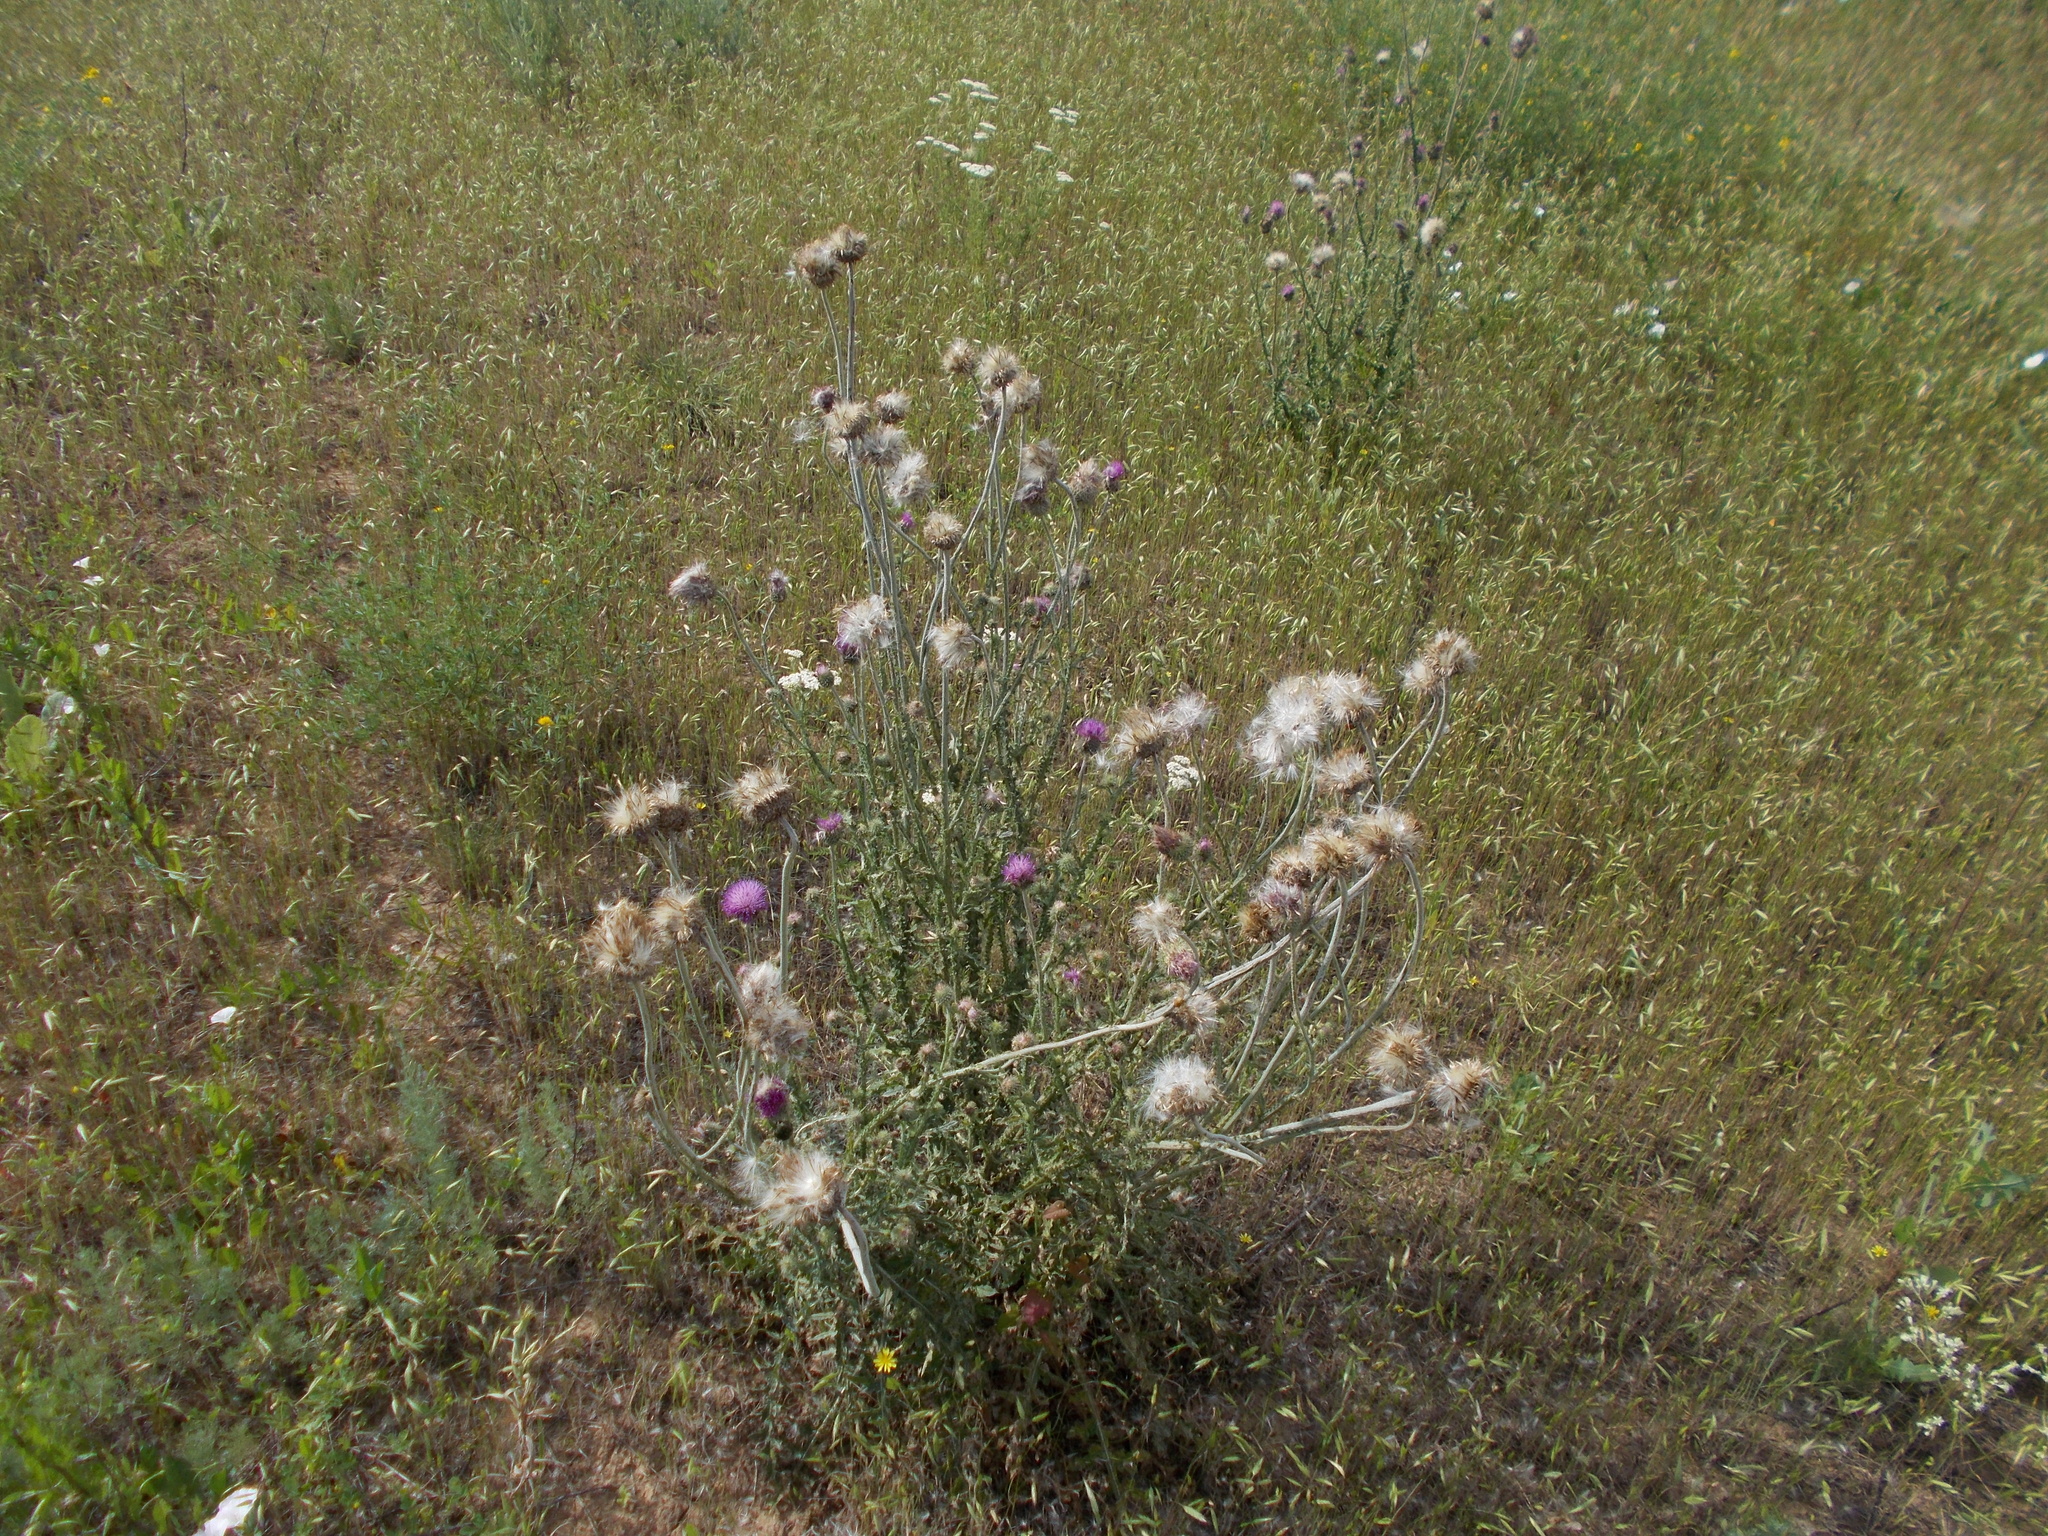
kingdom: Plantae
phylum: Tracheophyta
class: Magnoliopsida
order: Asterales
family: Asteraceae
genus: Carduus
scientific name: Carduus uncinatus
